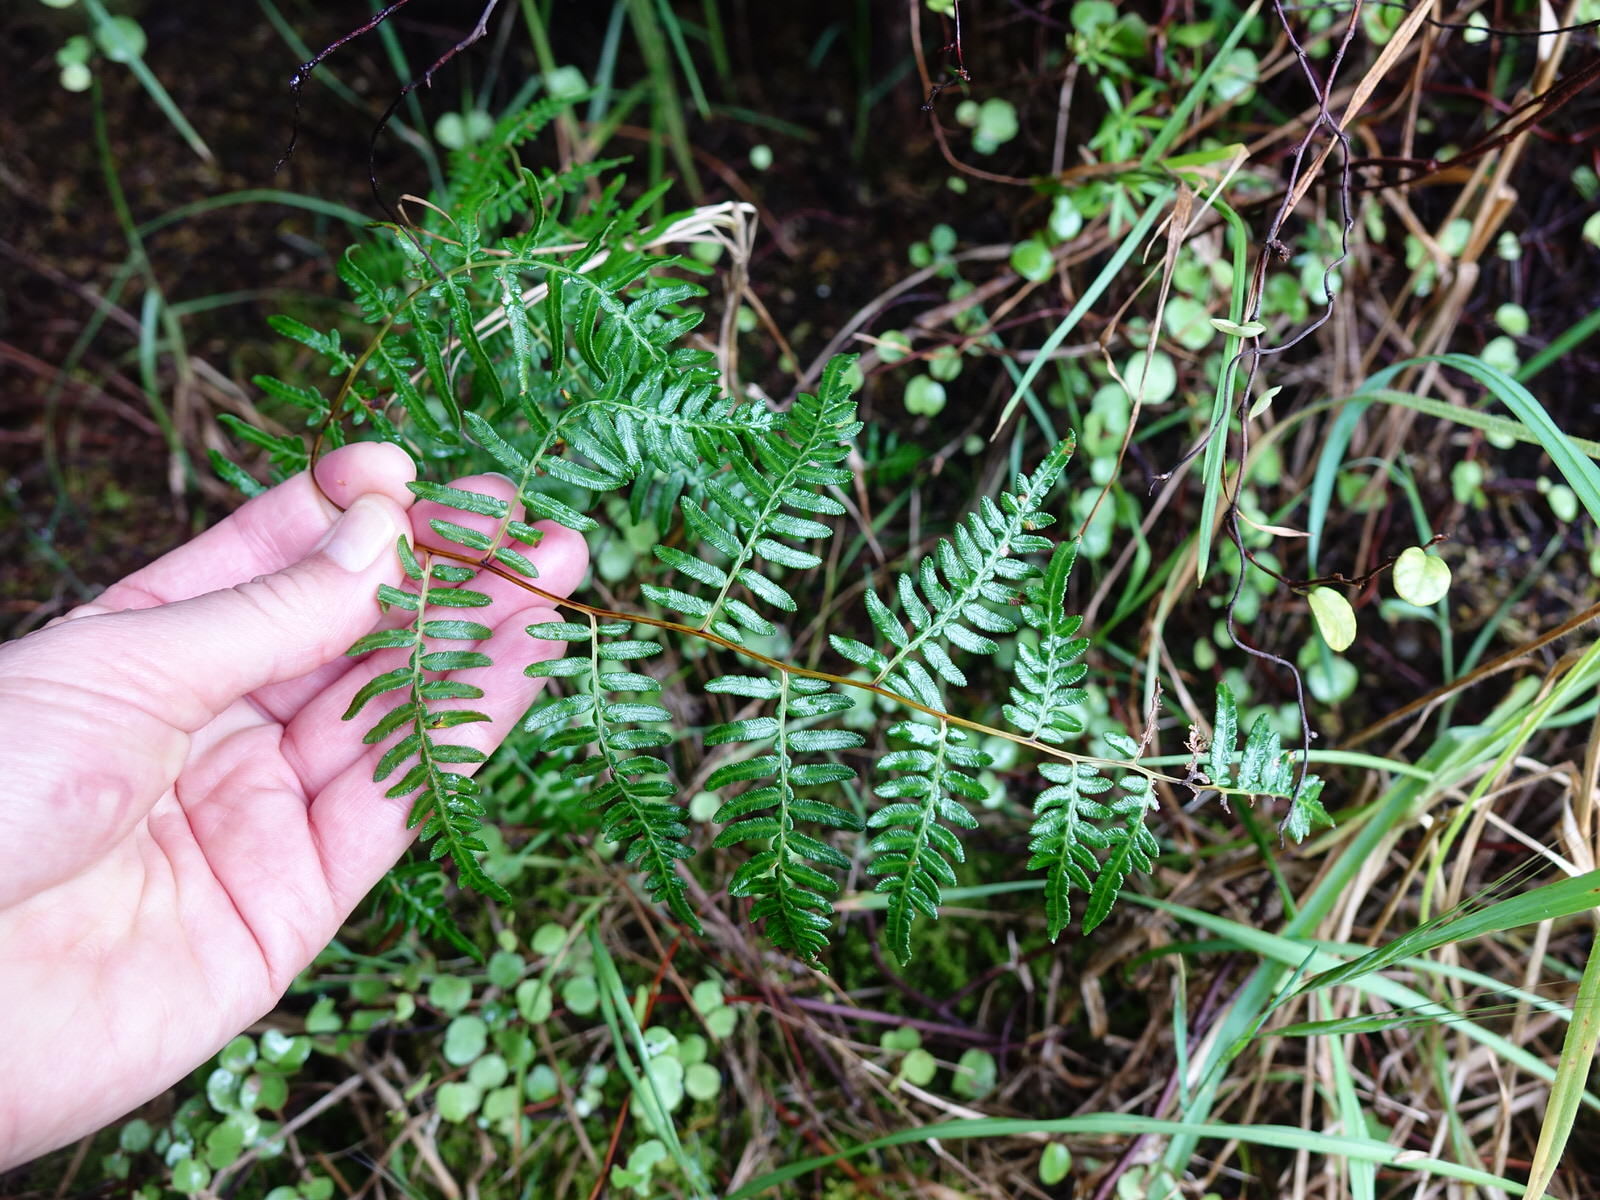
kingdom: Plantae
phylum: Tracheophyta
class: Polypodiopsida
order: Polypodiales
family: Dennstaedtiaceae
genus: Pteridium
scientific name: Pteridium esculentum
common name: Bracken fern
